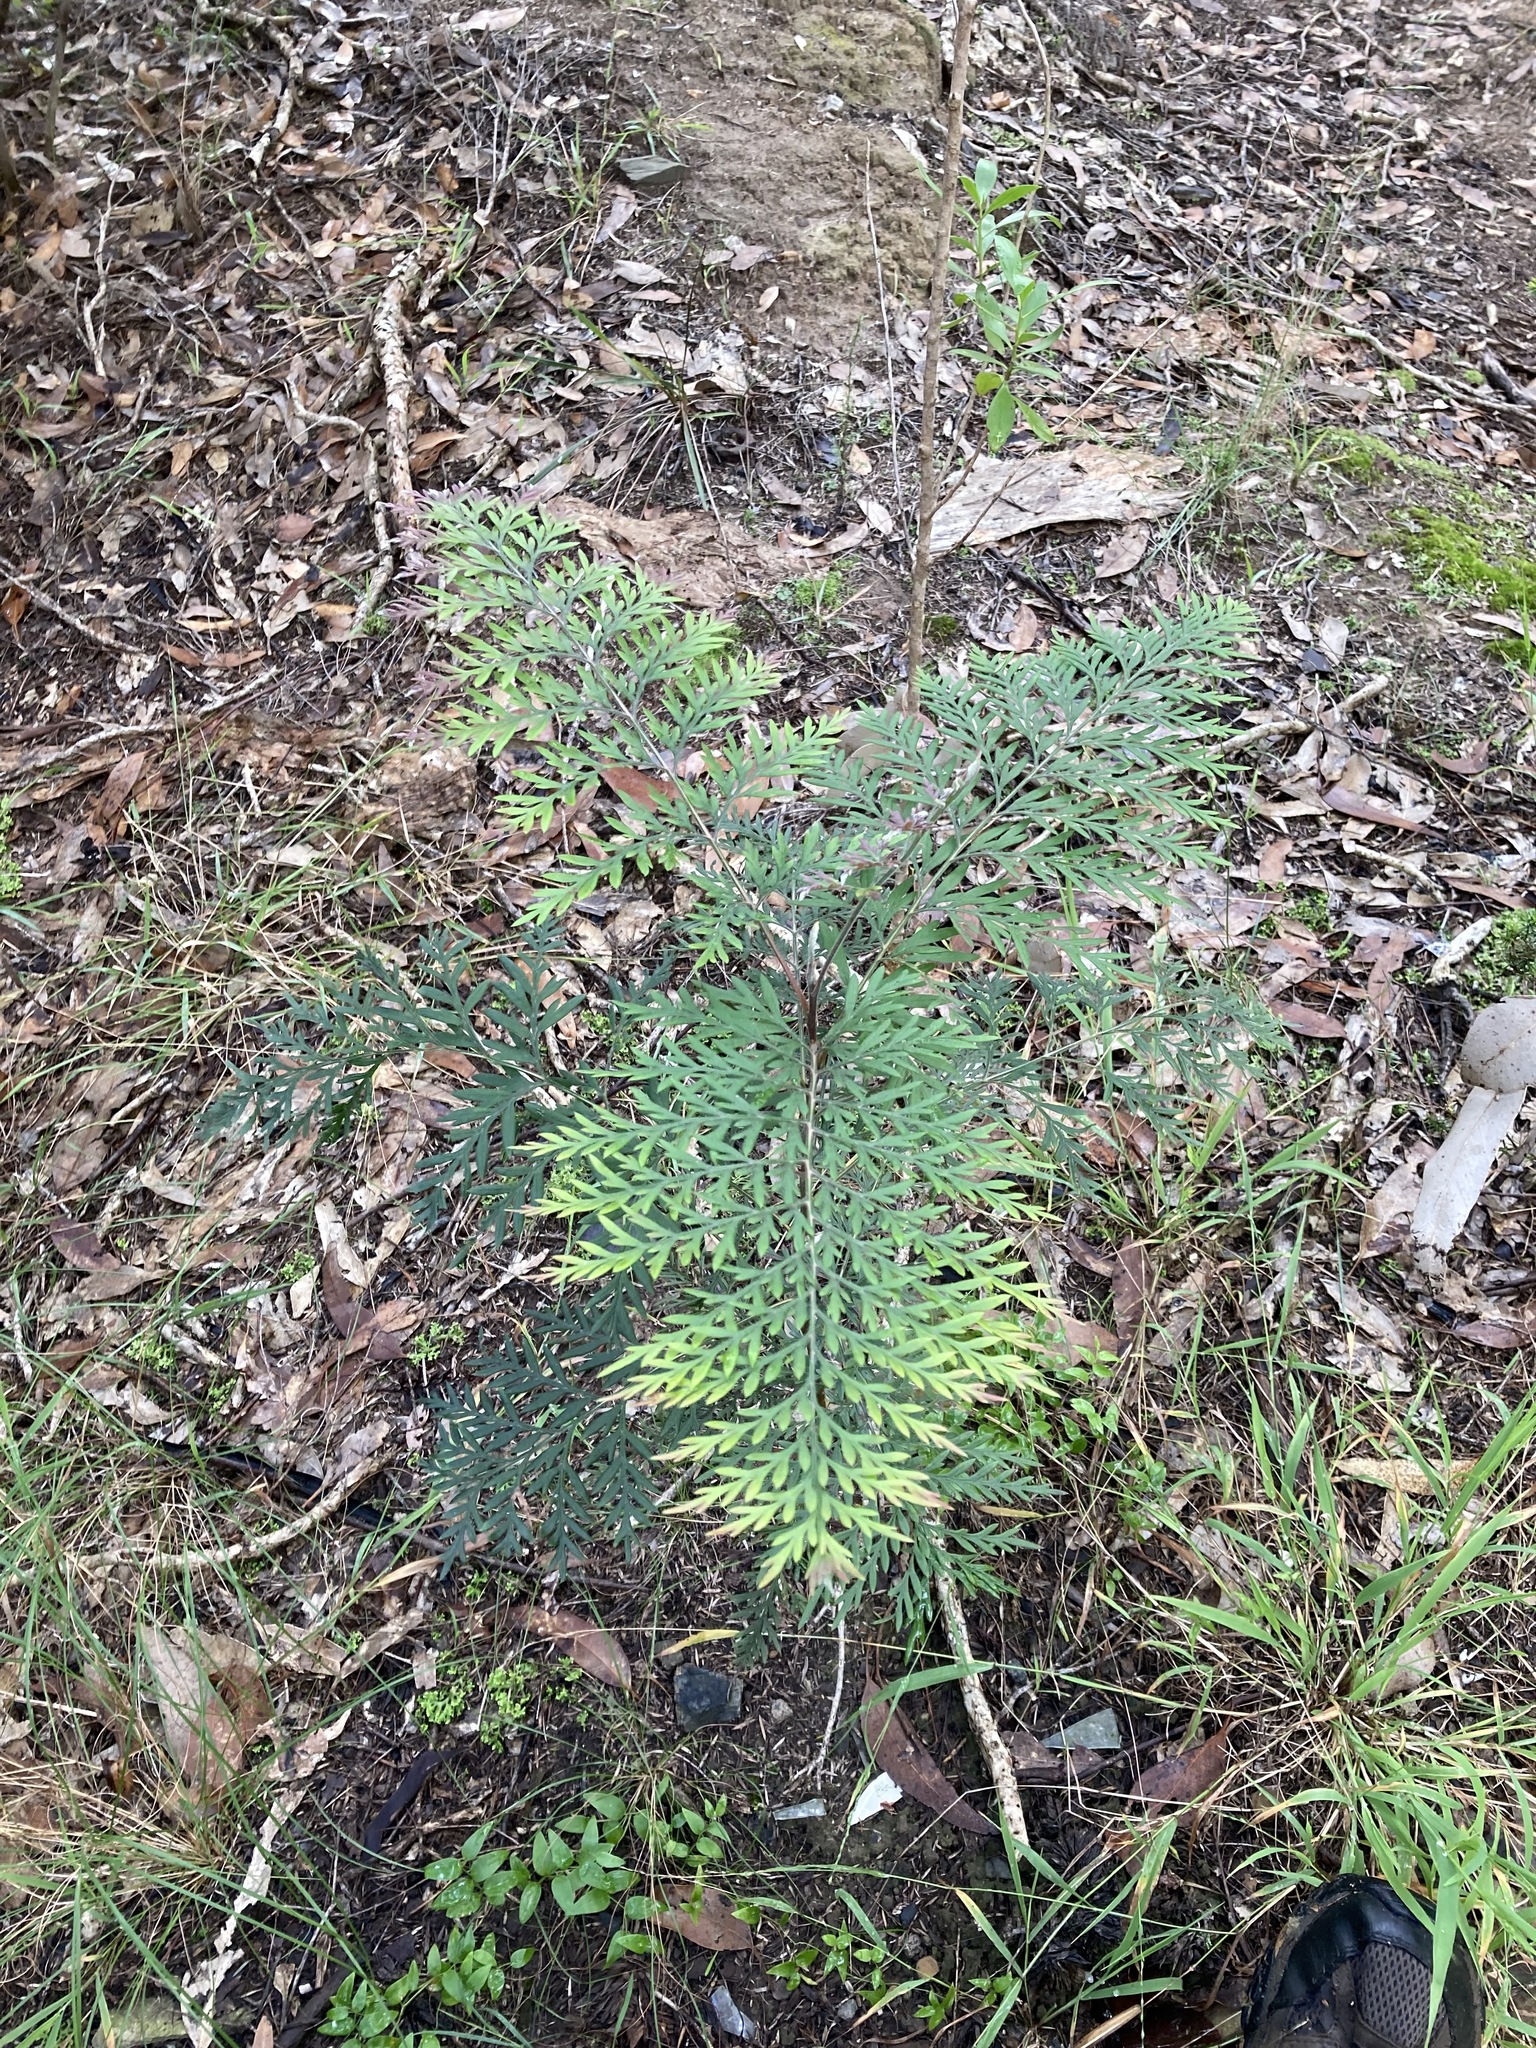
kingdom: Plantae
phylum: Tracheophyta
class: Magnoliopsida
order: Proteales
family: Proteaceae
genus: Grevillea
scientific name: Grevillea robusta
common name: Silkoak
